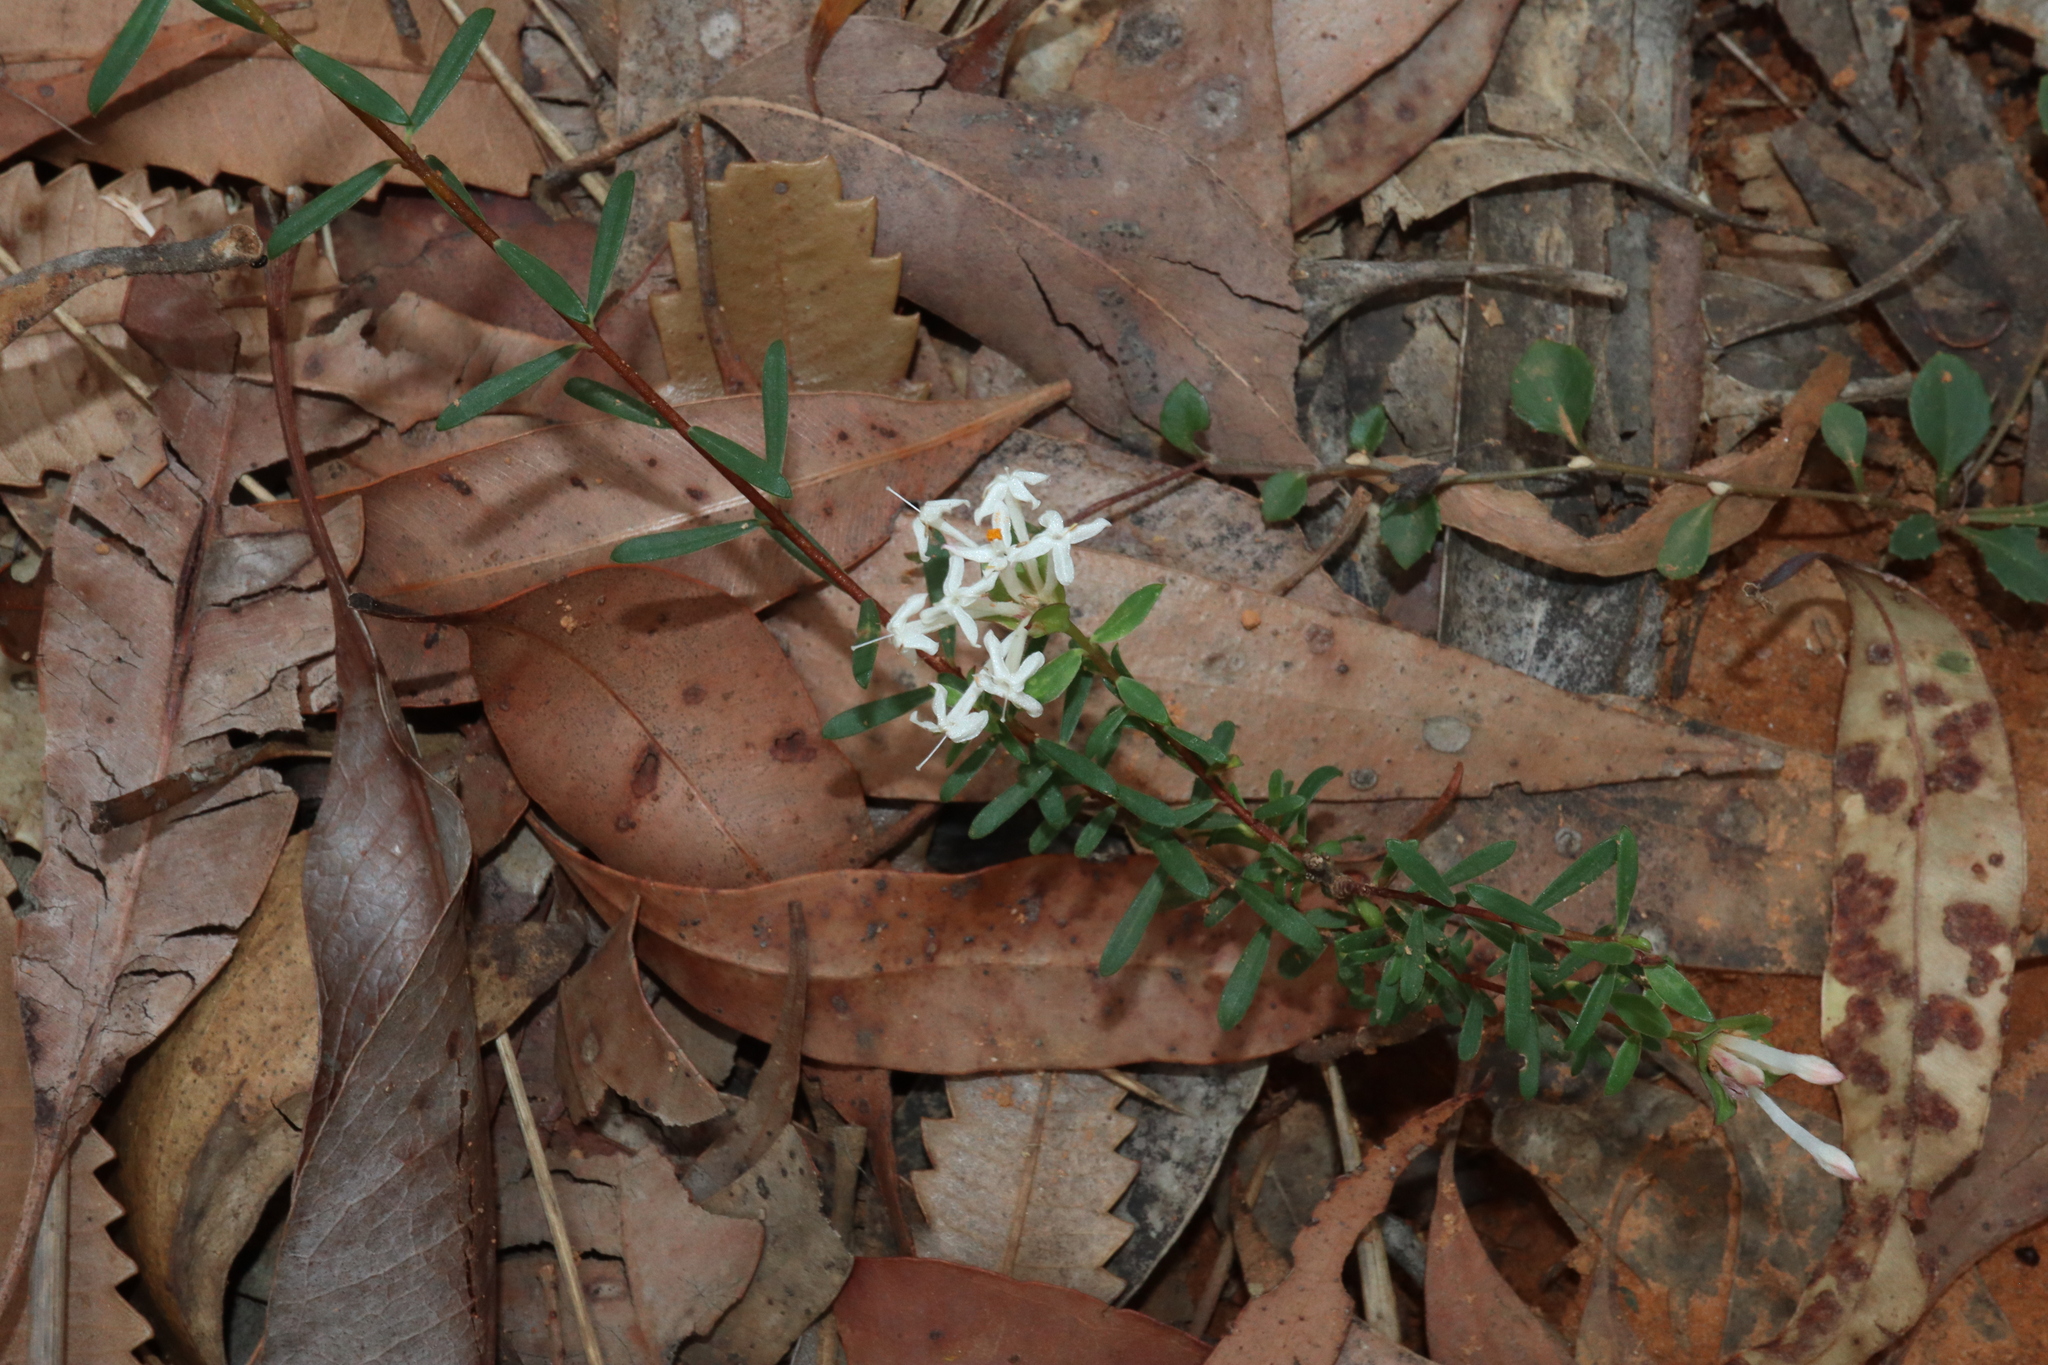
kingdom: Plantae
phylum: Tracheophyta
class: Magnoliopsida
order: Malvales
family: Thymelaeaceae
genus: Pimelea
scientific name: Pimelea linifolia
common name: Queen-of-the-bush
